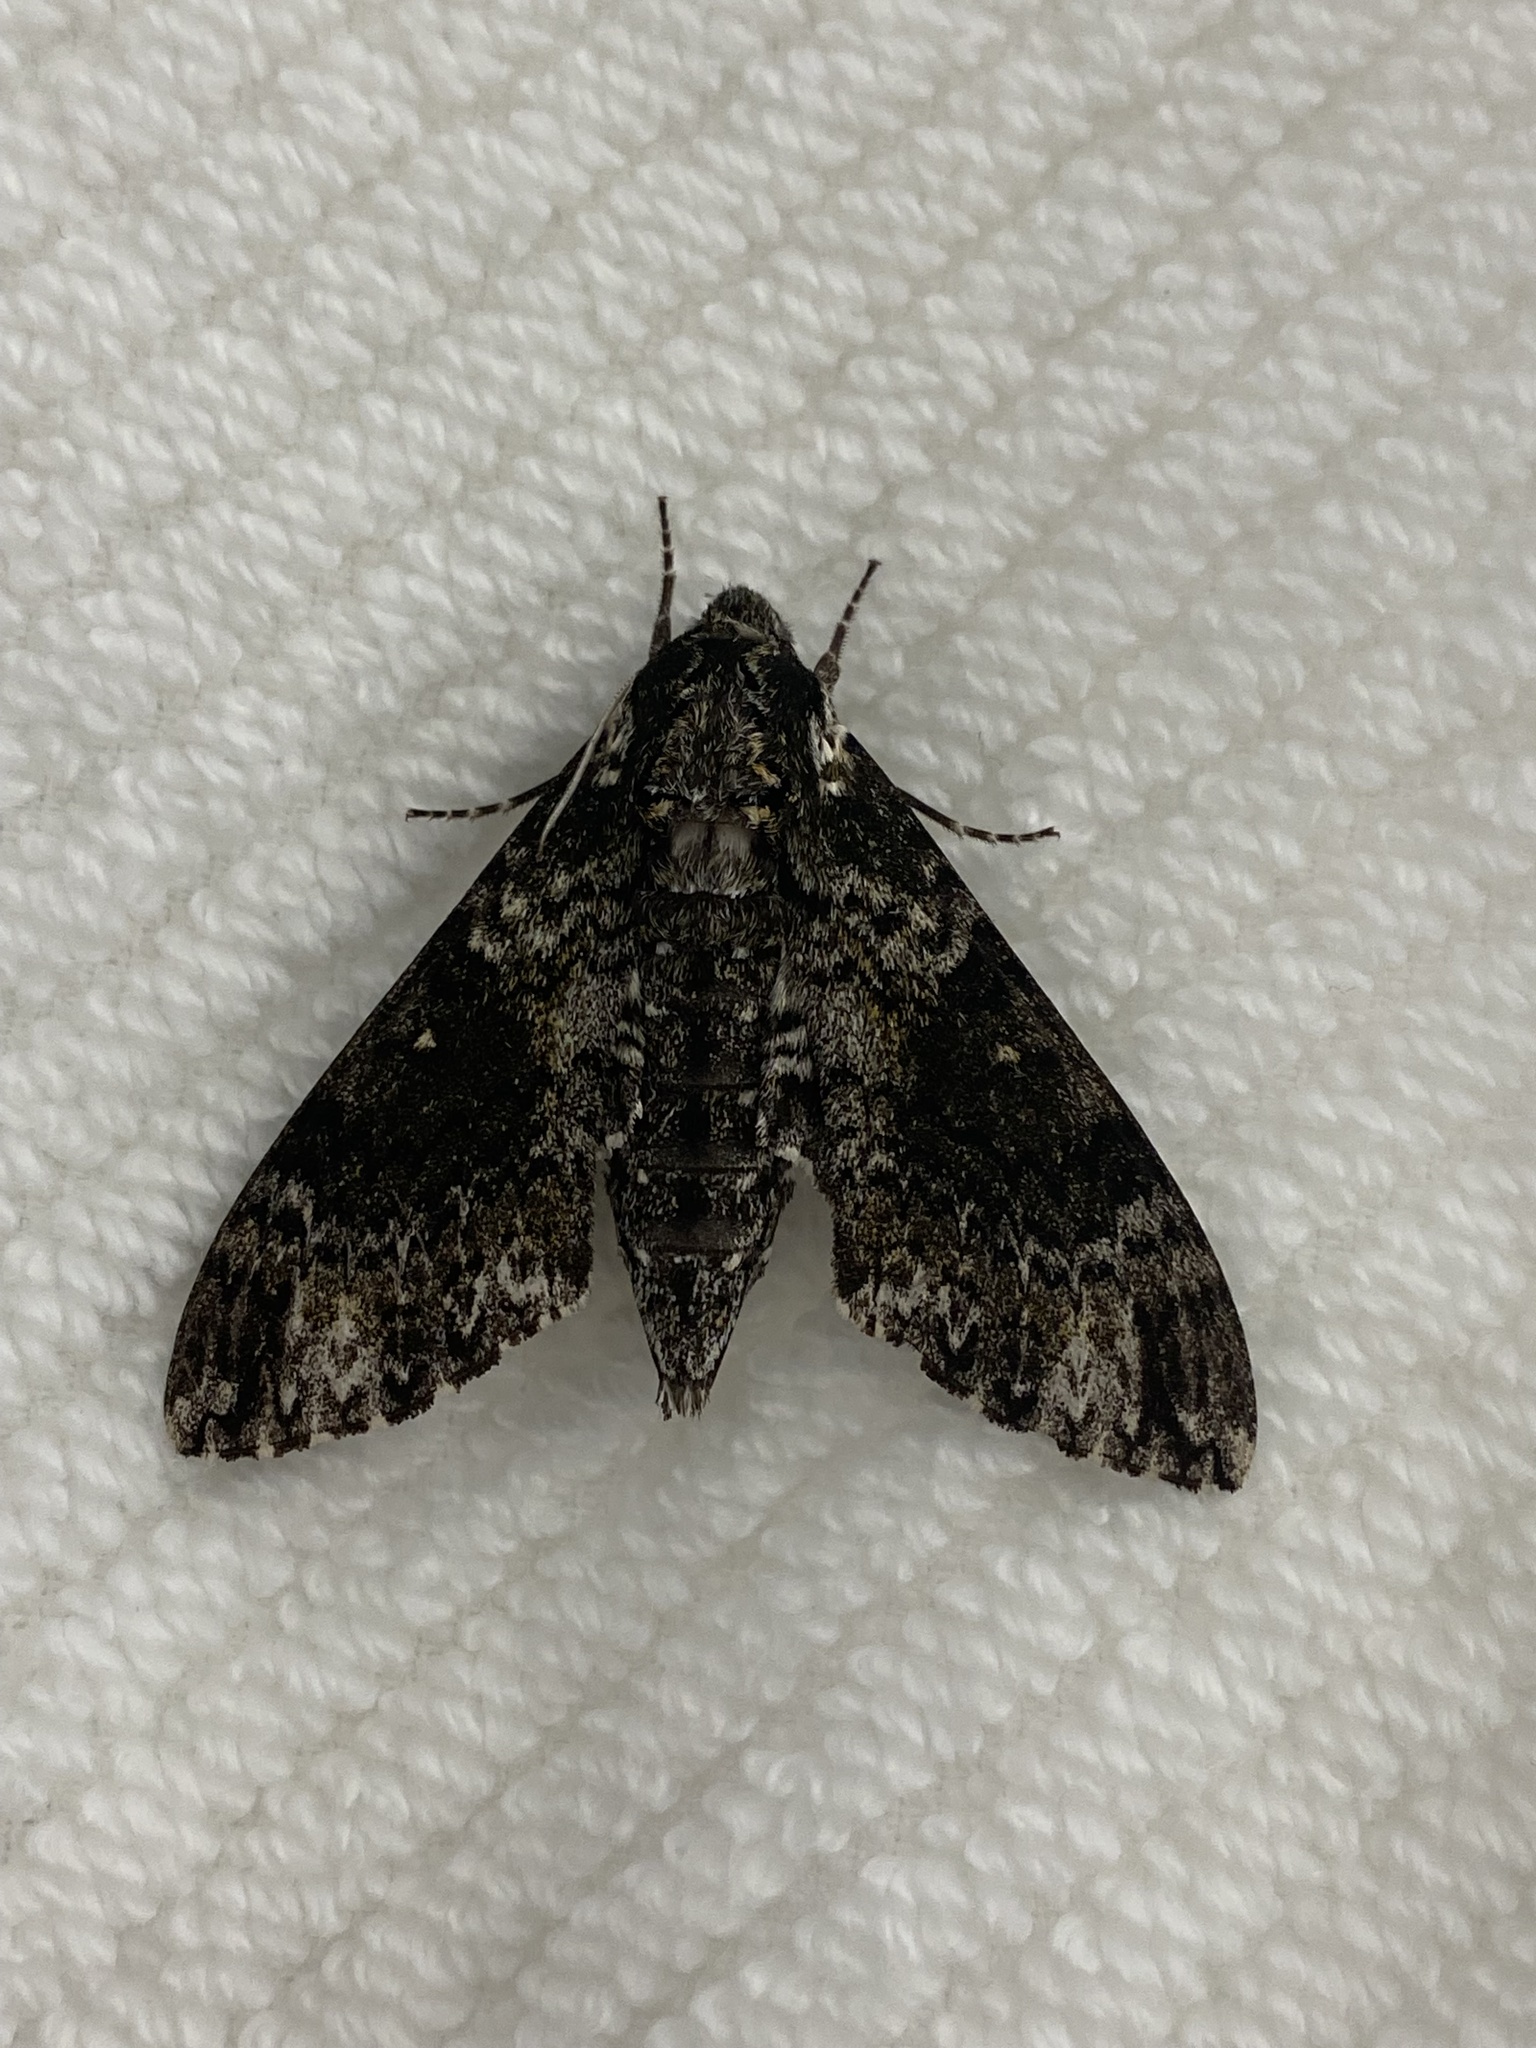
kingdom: Animalia
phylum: Arthropoda
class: Insecta
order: Lepidoptera
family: Sphingidae
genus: Dolba
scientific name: Dolba hyloeus
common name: Pawpaw sphinx
